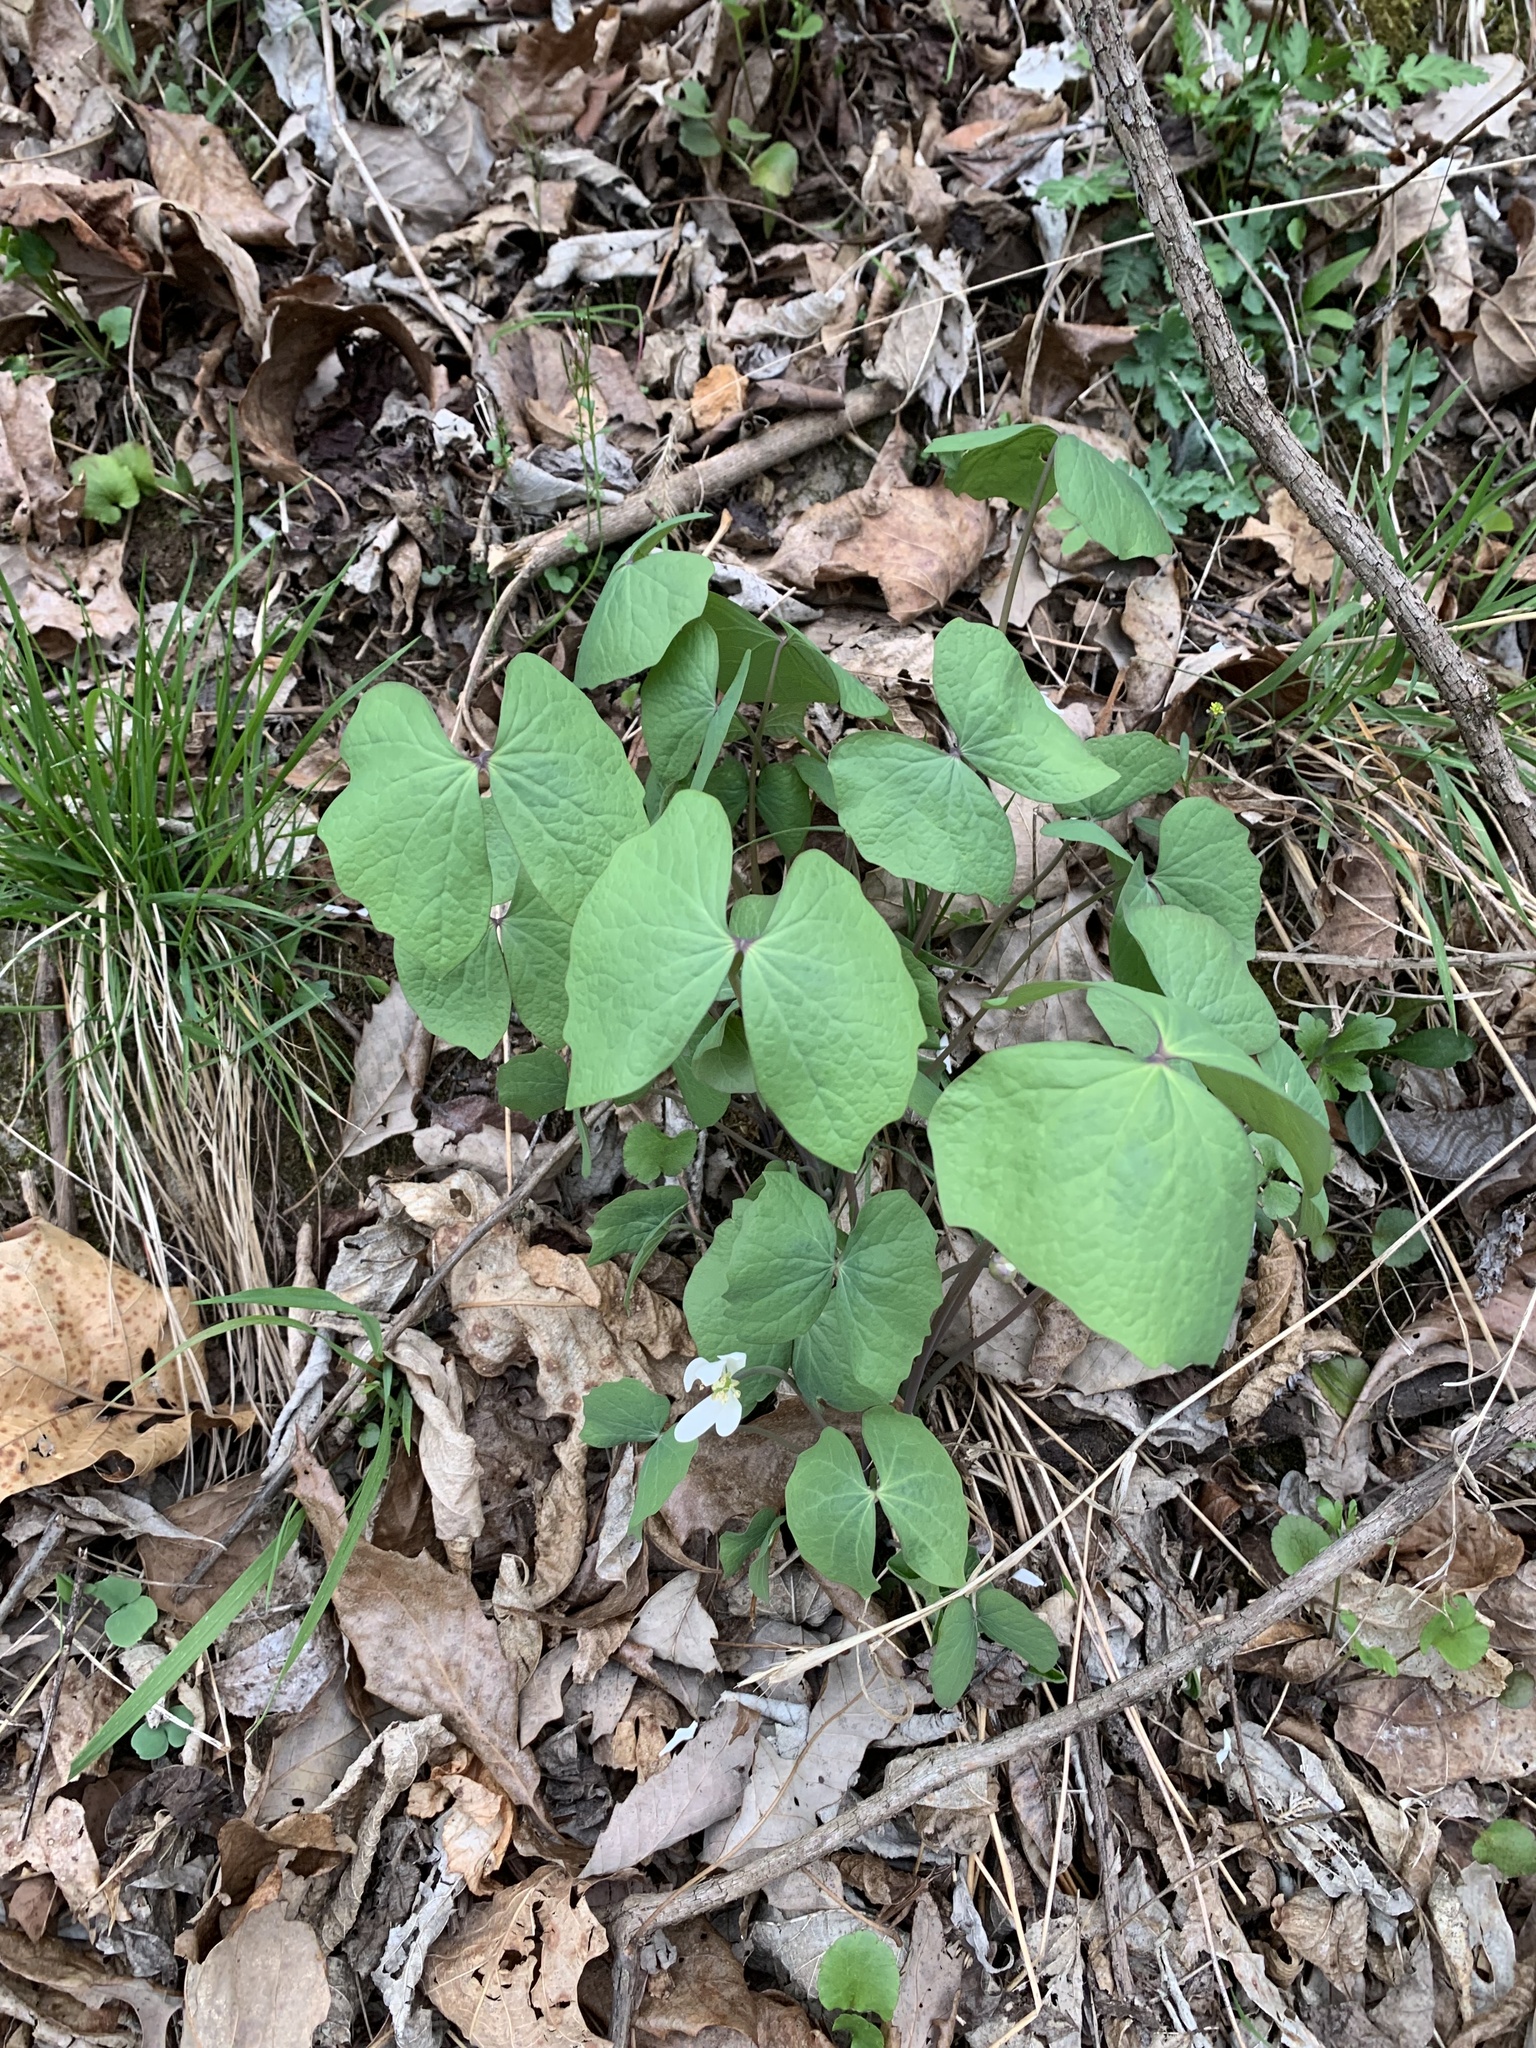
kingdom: Plantae
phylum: Tracheophyta
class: Magnoliopsida
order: Ranunculales
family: Berberidaceae
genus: Jeffersonia
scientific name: Jeffersonia diphylla
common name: Rheumatism-root
